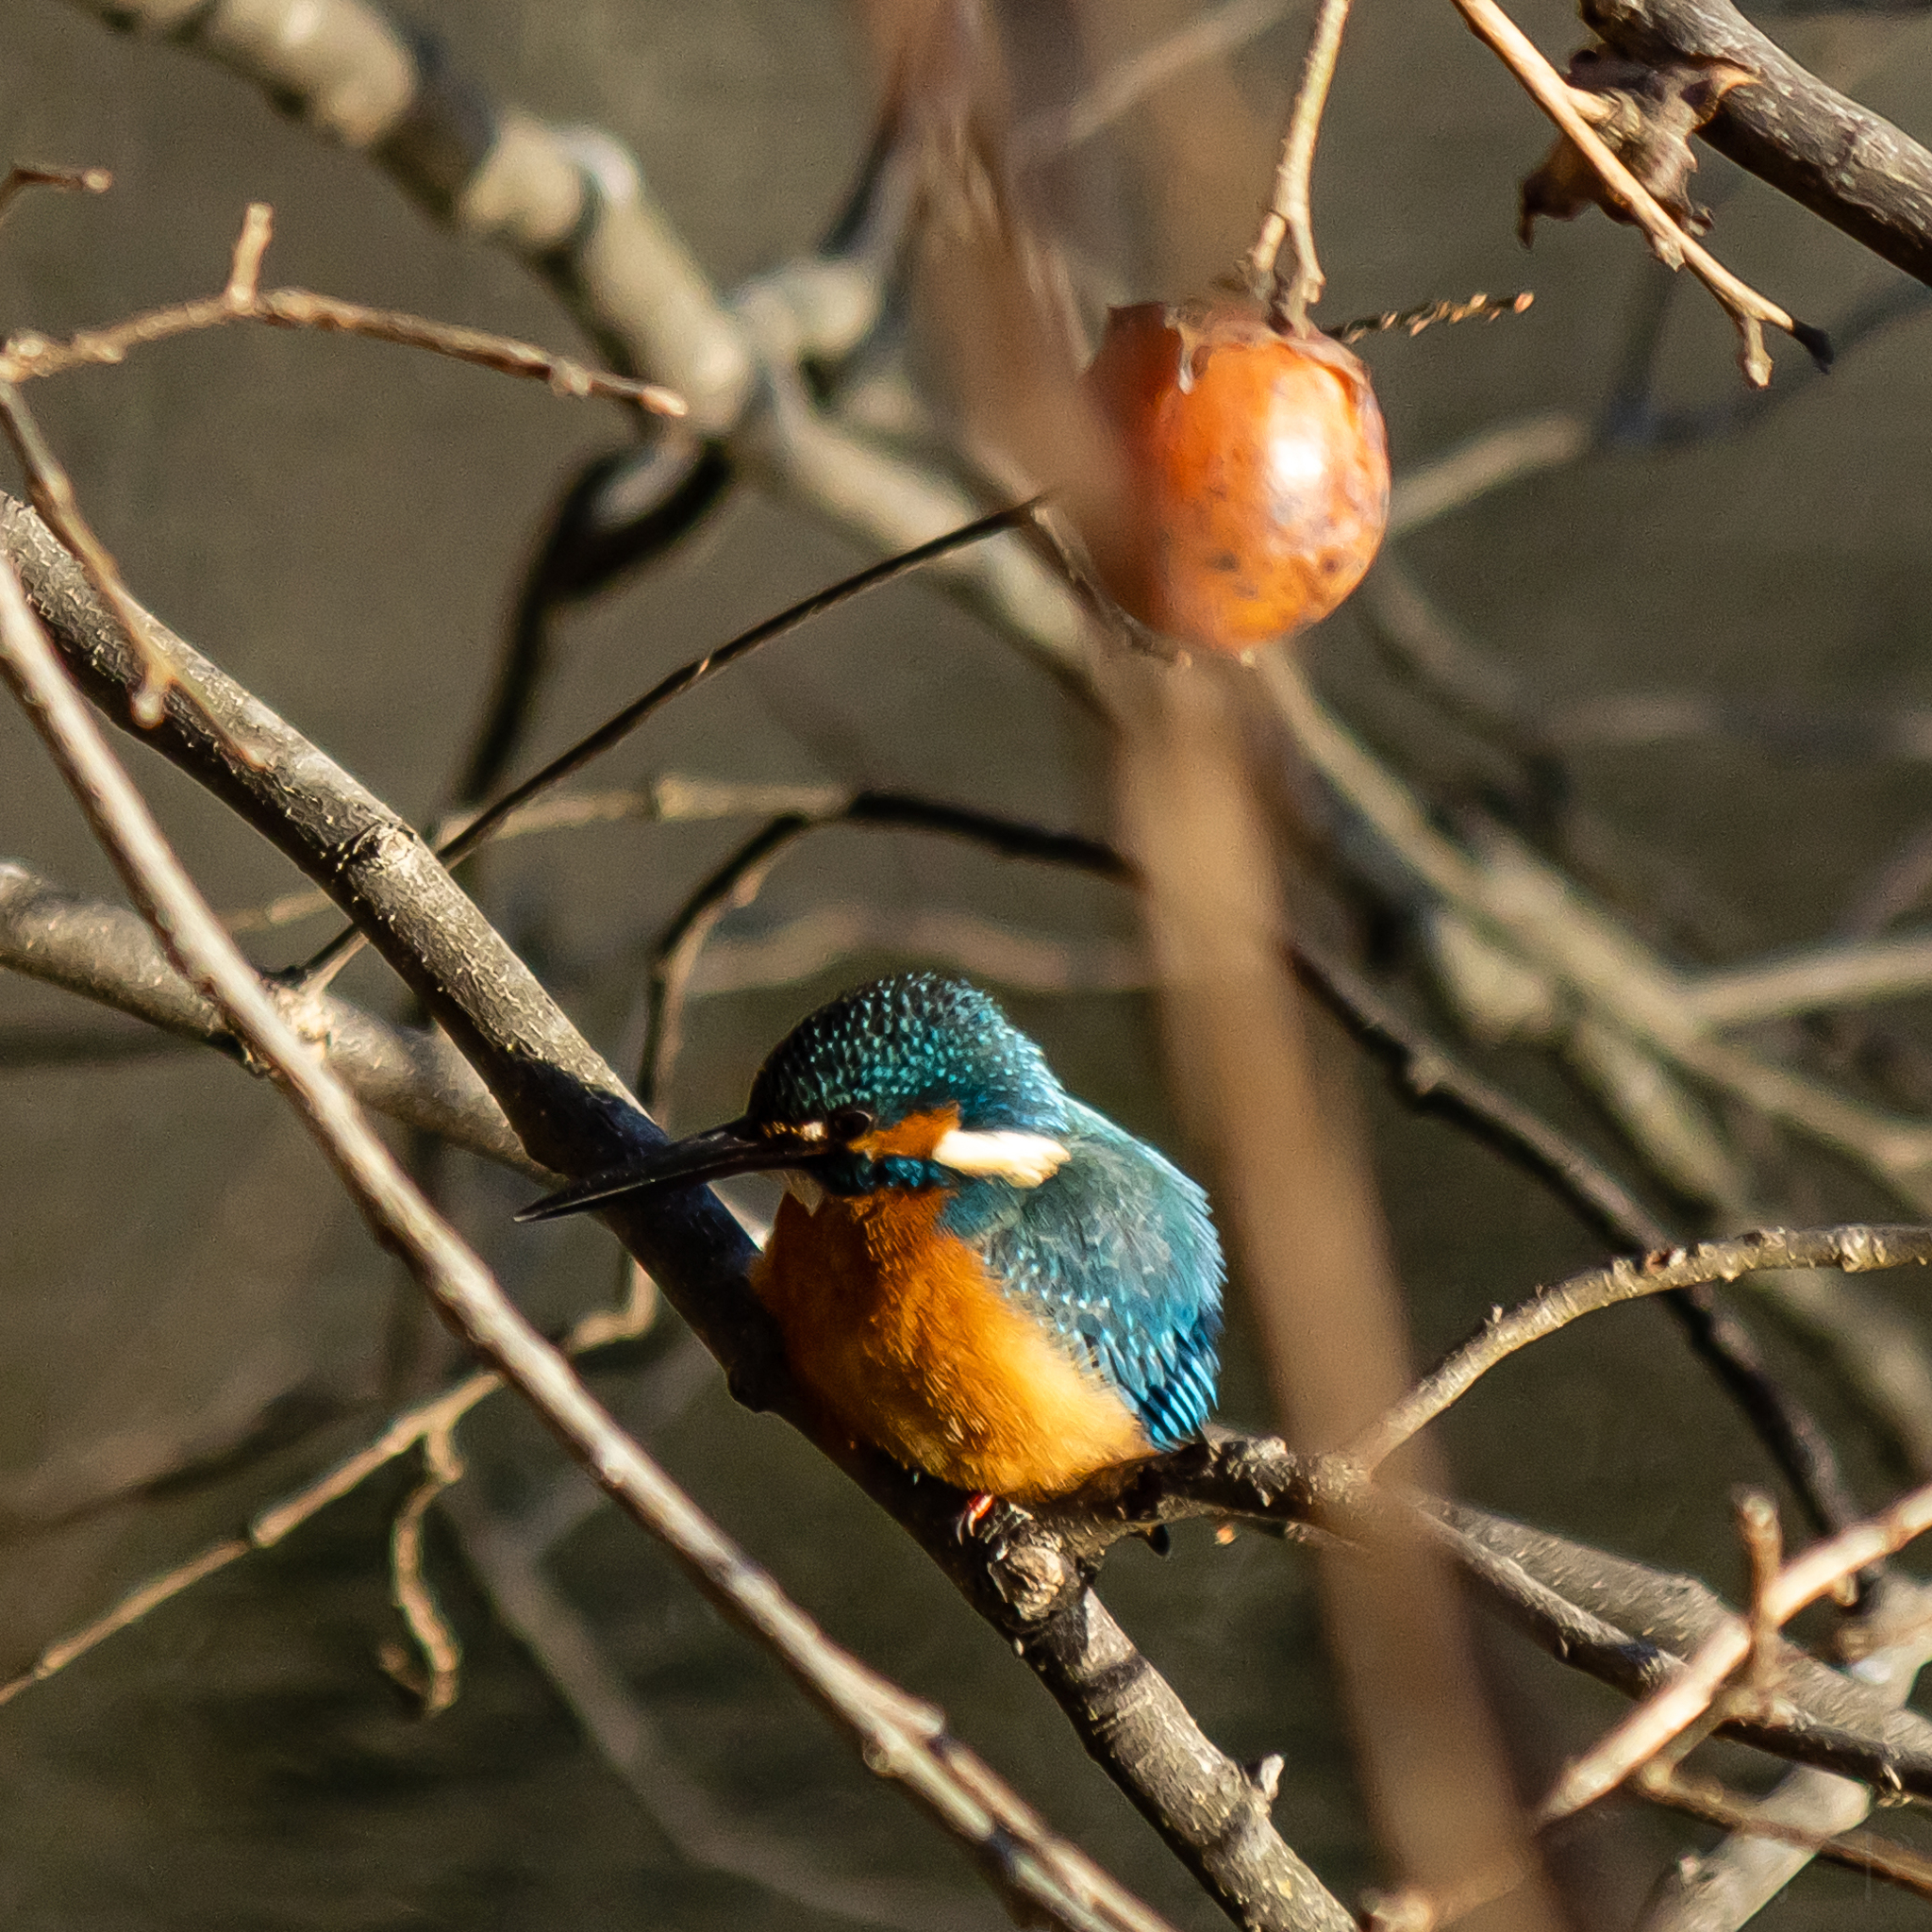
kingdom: Animalia
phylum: Chordata
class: Aves
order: Coraciiformes
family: Alcedinidae
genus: Alcedo
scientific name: Alcedo atthis
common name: Common kingfisher
